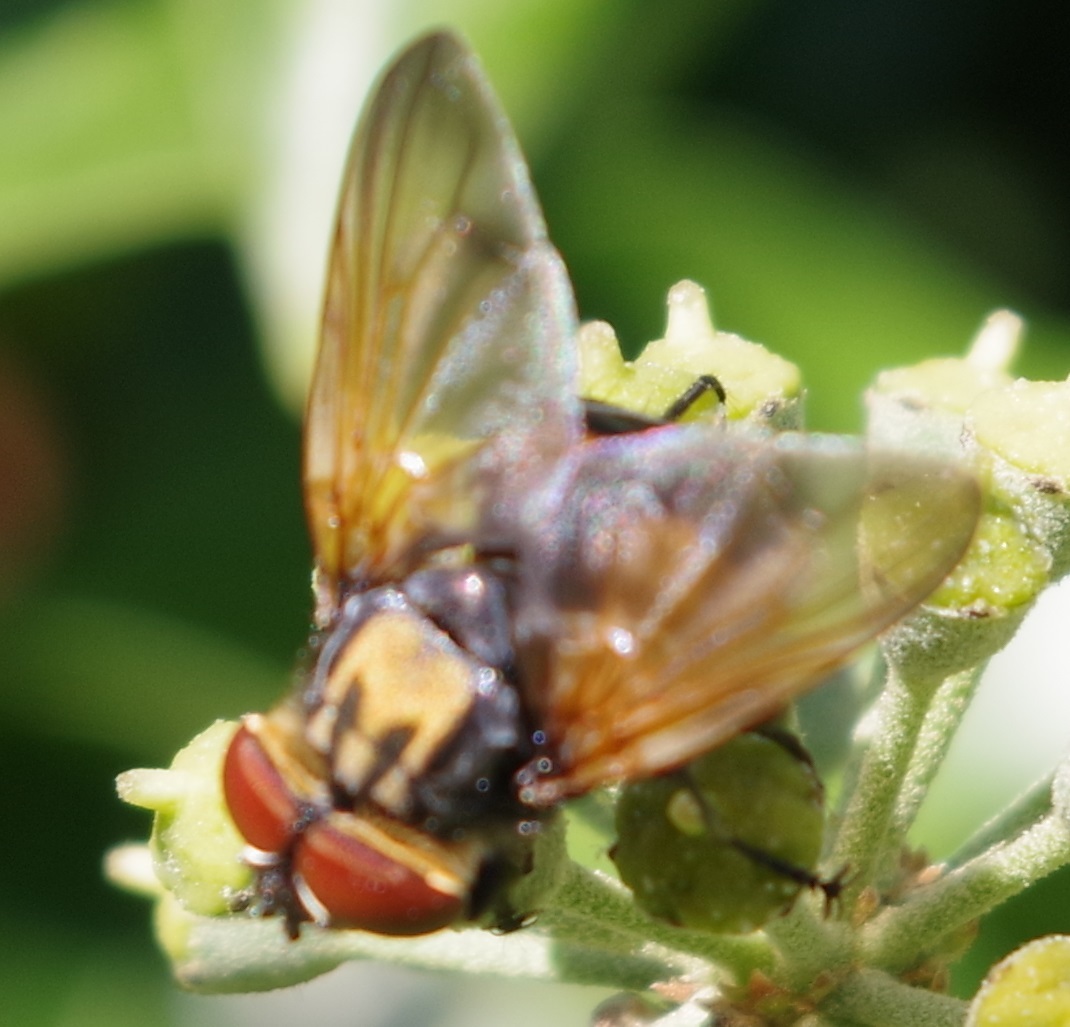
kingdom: Animalia
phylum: Arthropoda
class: Insecta
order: Diptera
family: Tachinidae
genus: Phasia
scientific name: Phasia aurigera
